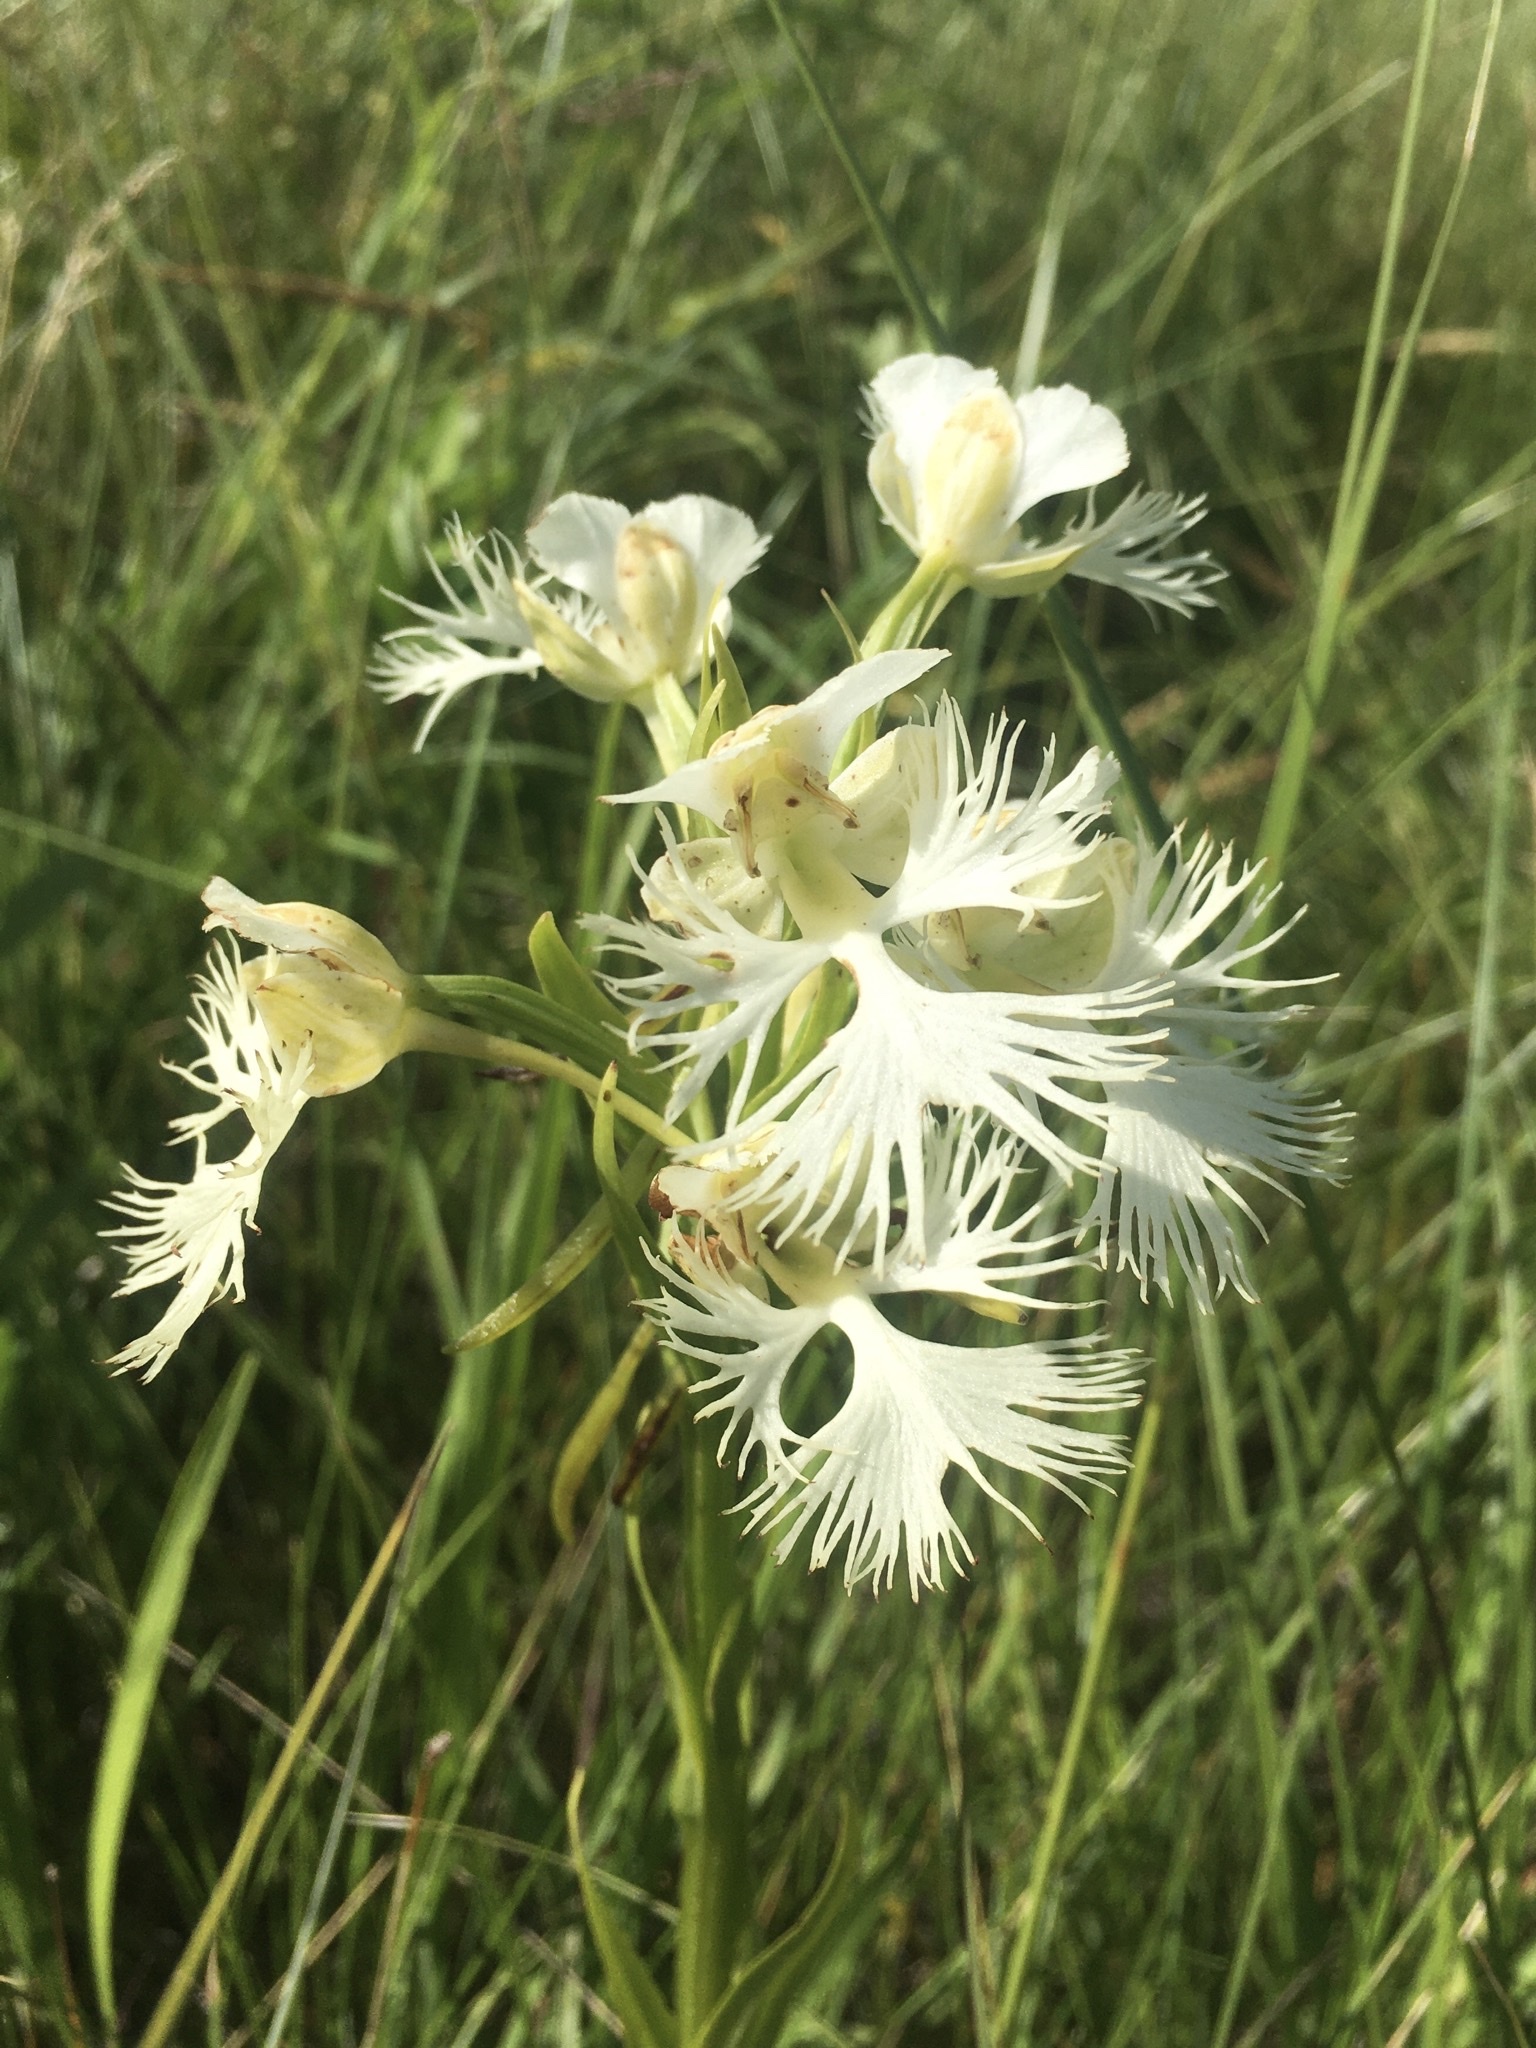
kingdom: Plantae
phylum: Tracheophyta
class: Liliopsida
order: Asparagales
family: Orchidaceae
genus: Platanthera
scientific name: Platanthera praeclara
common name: Western prairie fringed orchid
